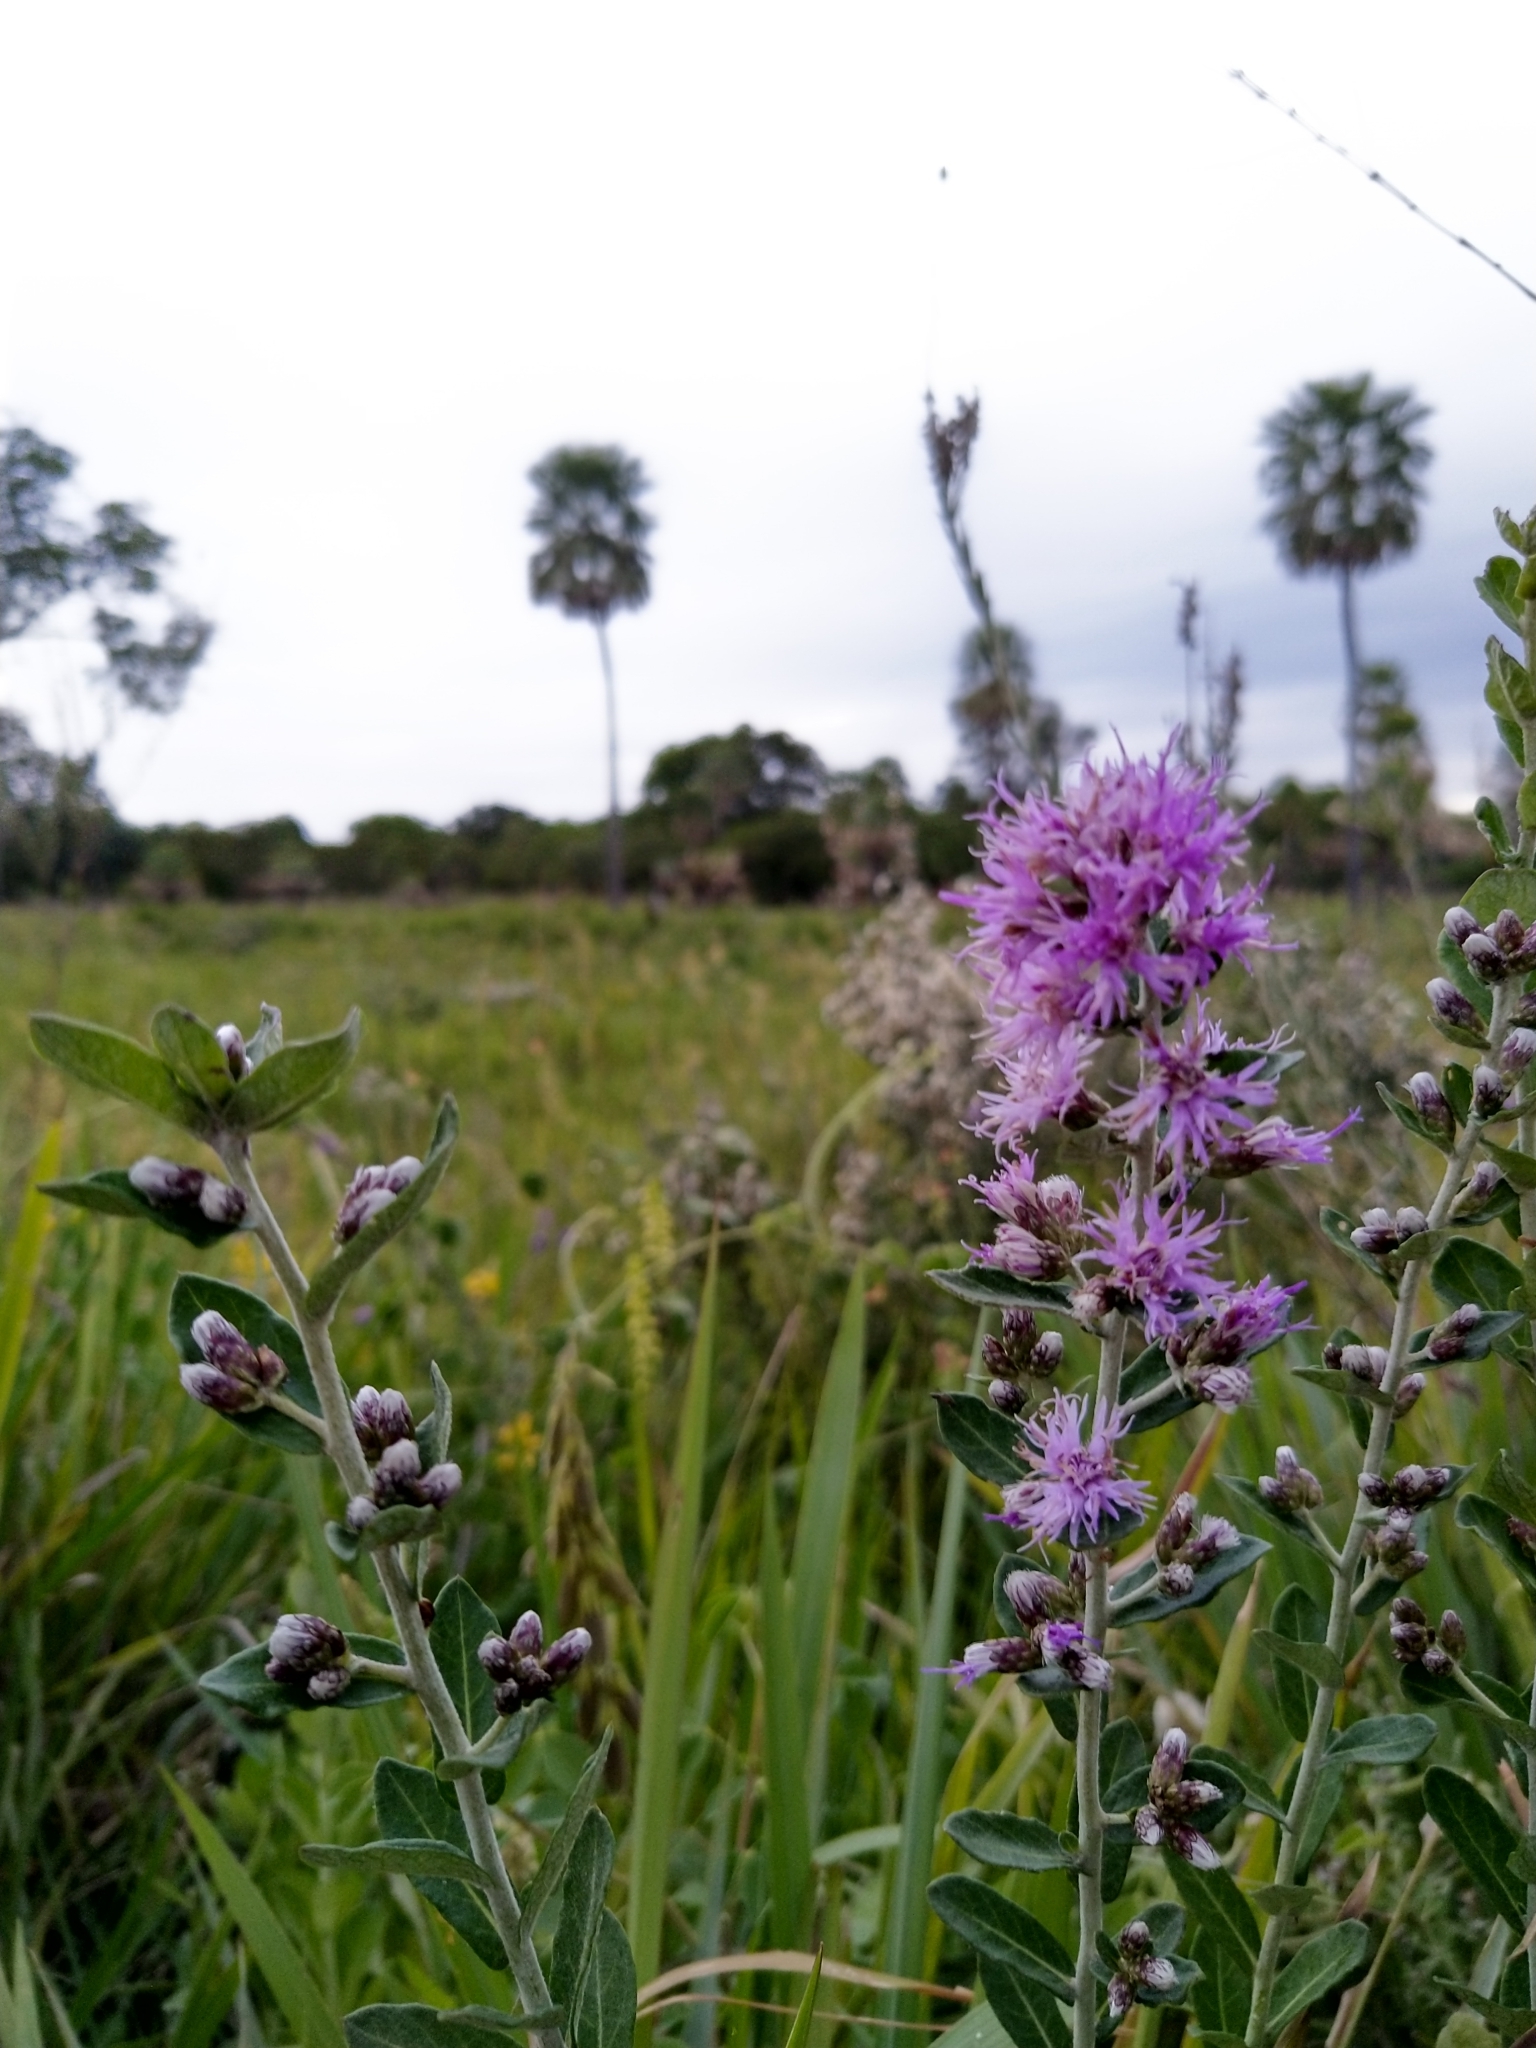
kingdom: Plantae
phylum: Tracheophyta
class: Magnoliopsida
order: Asterales
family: Asteraceae
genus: Vernonanthura
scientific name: Vernonanthura chamaedrys
